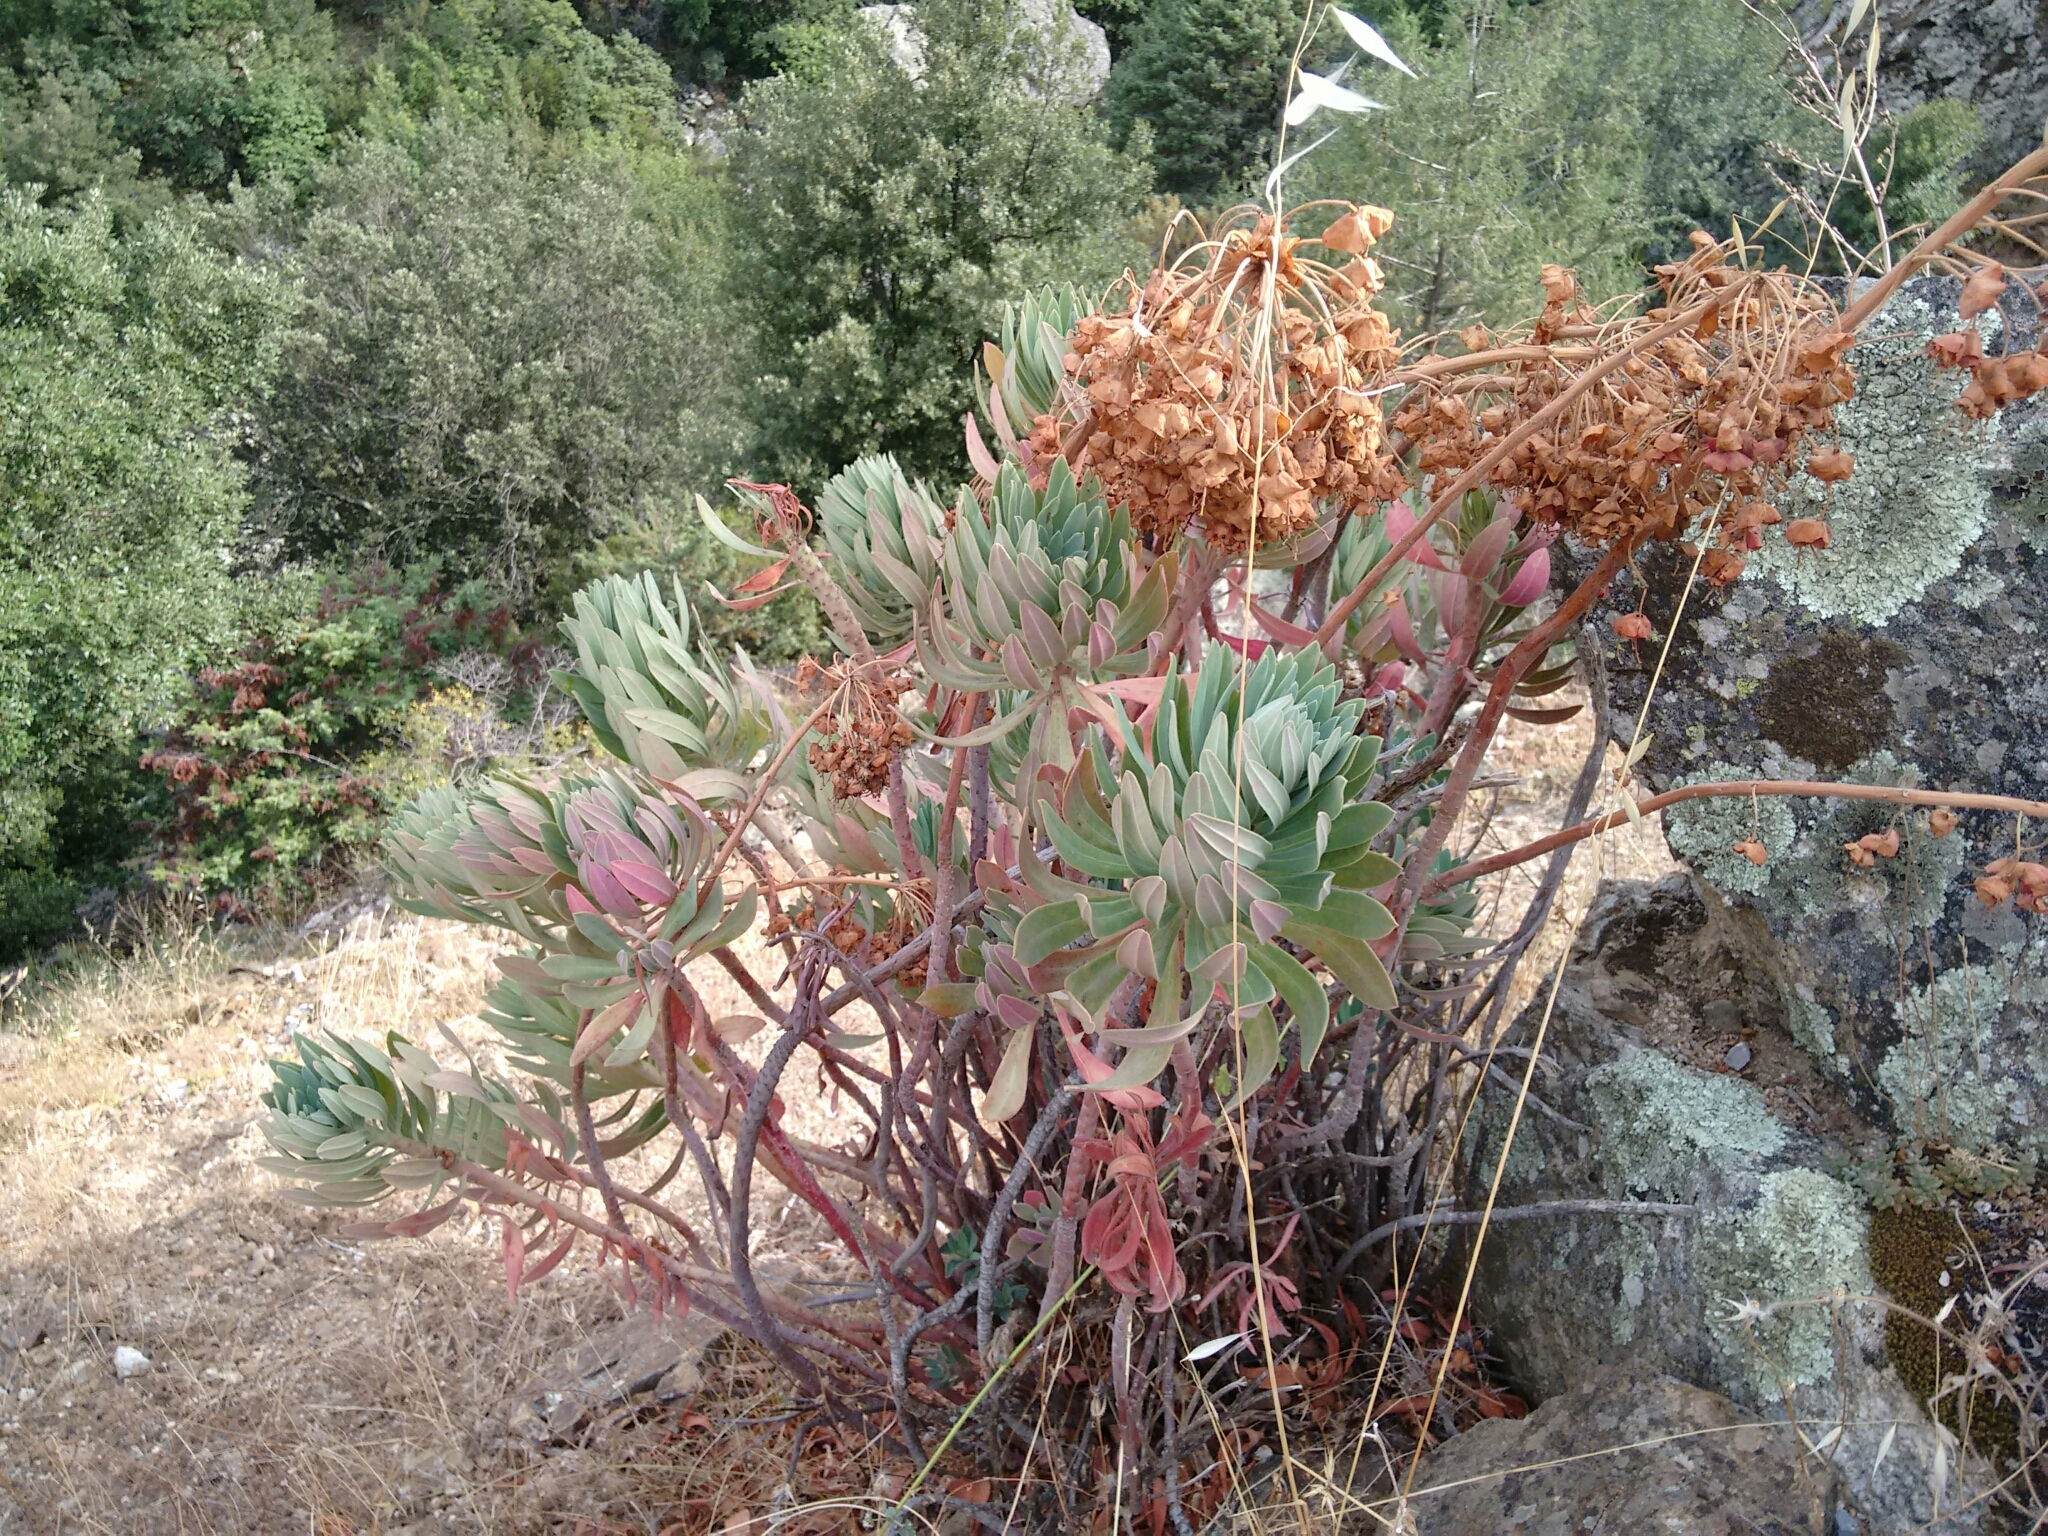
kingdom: Plantae
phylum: Tracheophyta
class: Magnoliopsida
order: Malpighiales
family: Euphorbiaceae
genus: Euphorbia
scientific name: Euphorbia characias
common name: Mediterranean spurge
